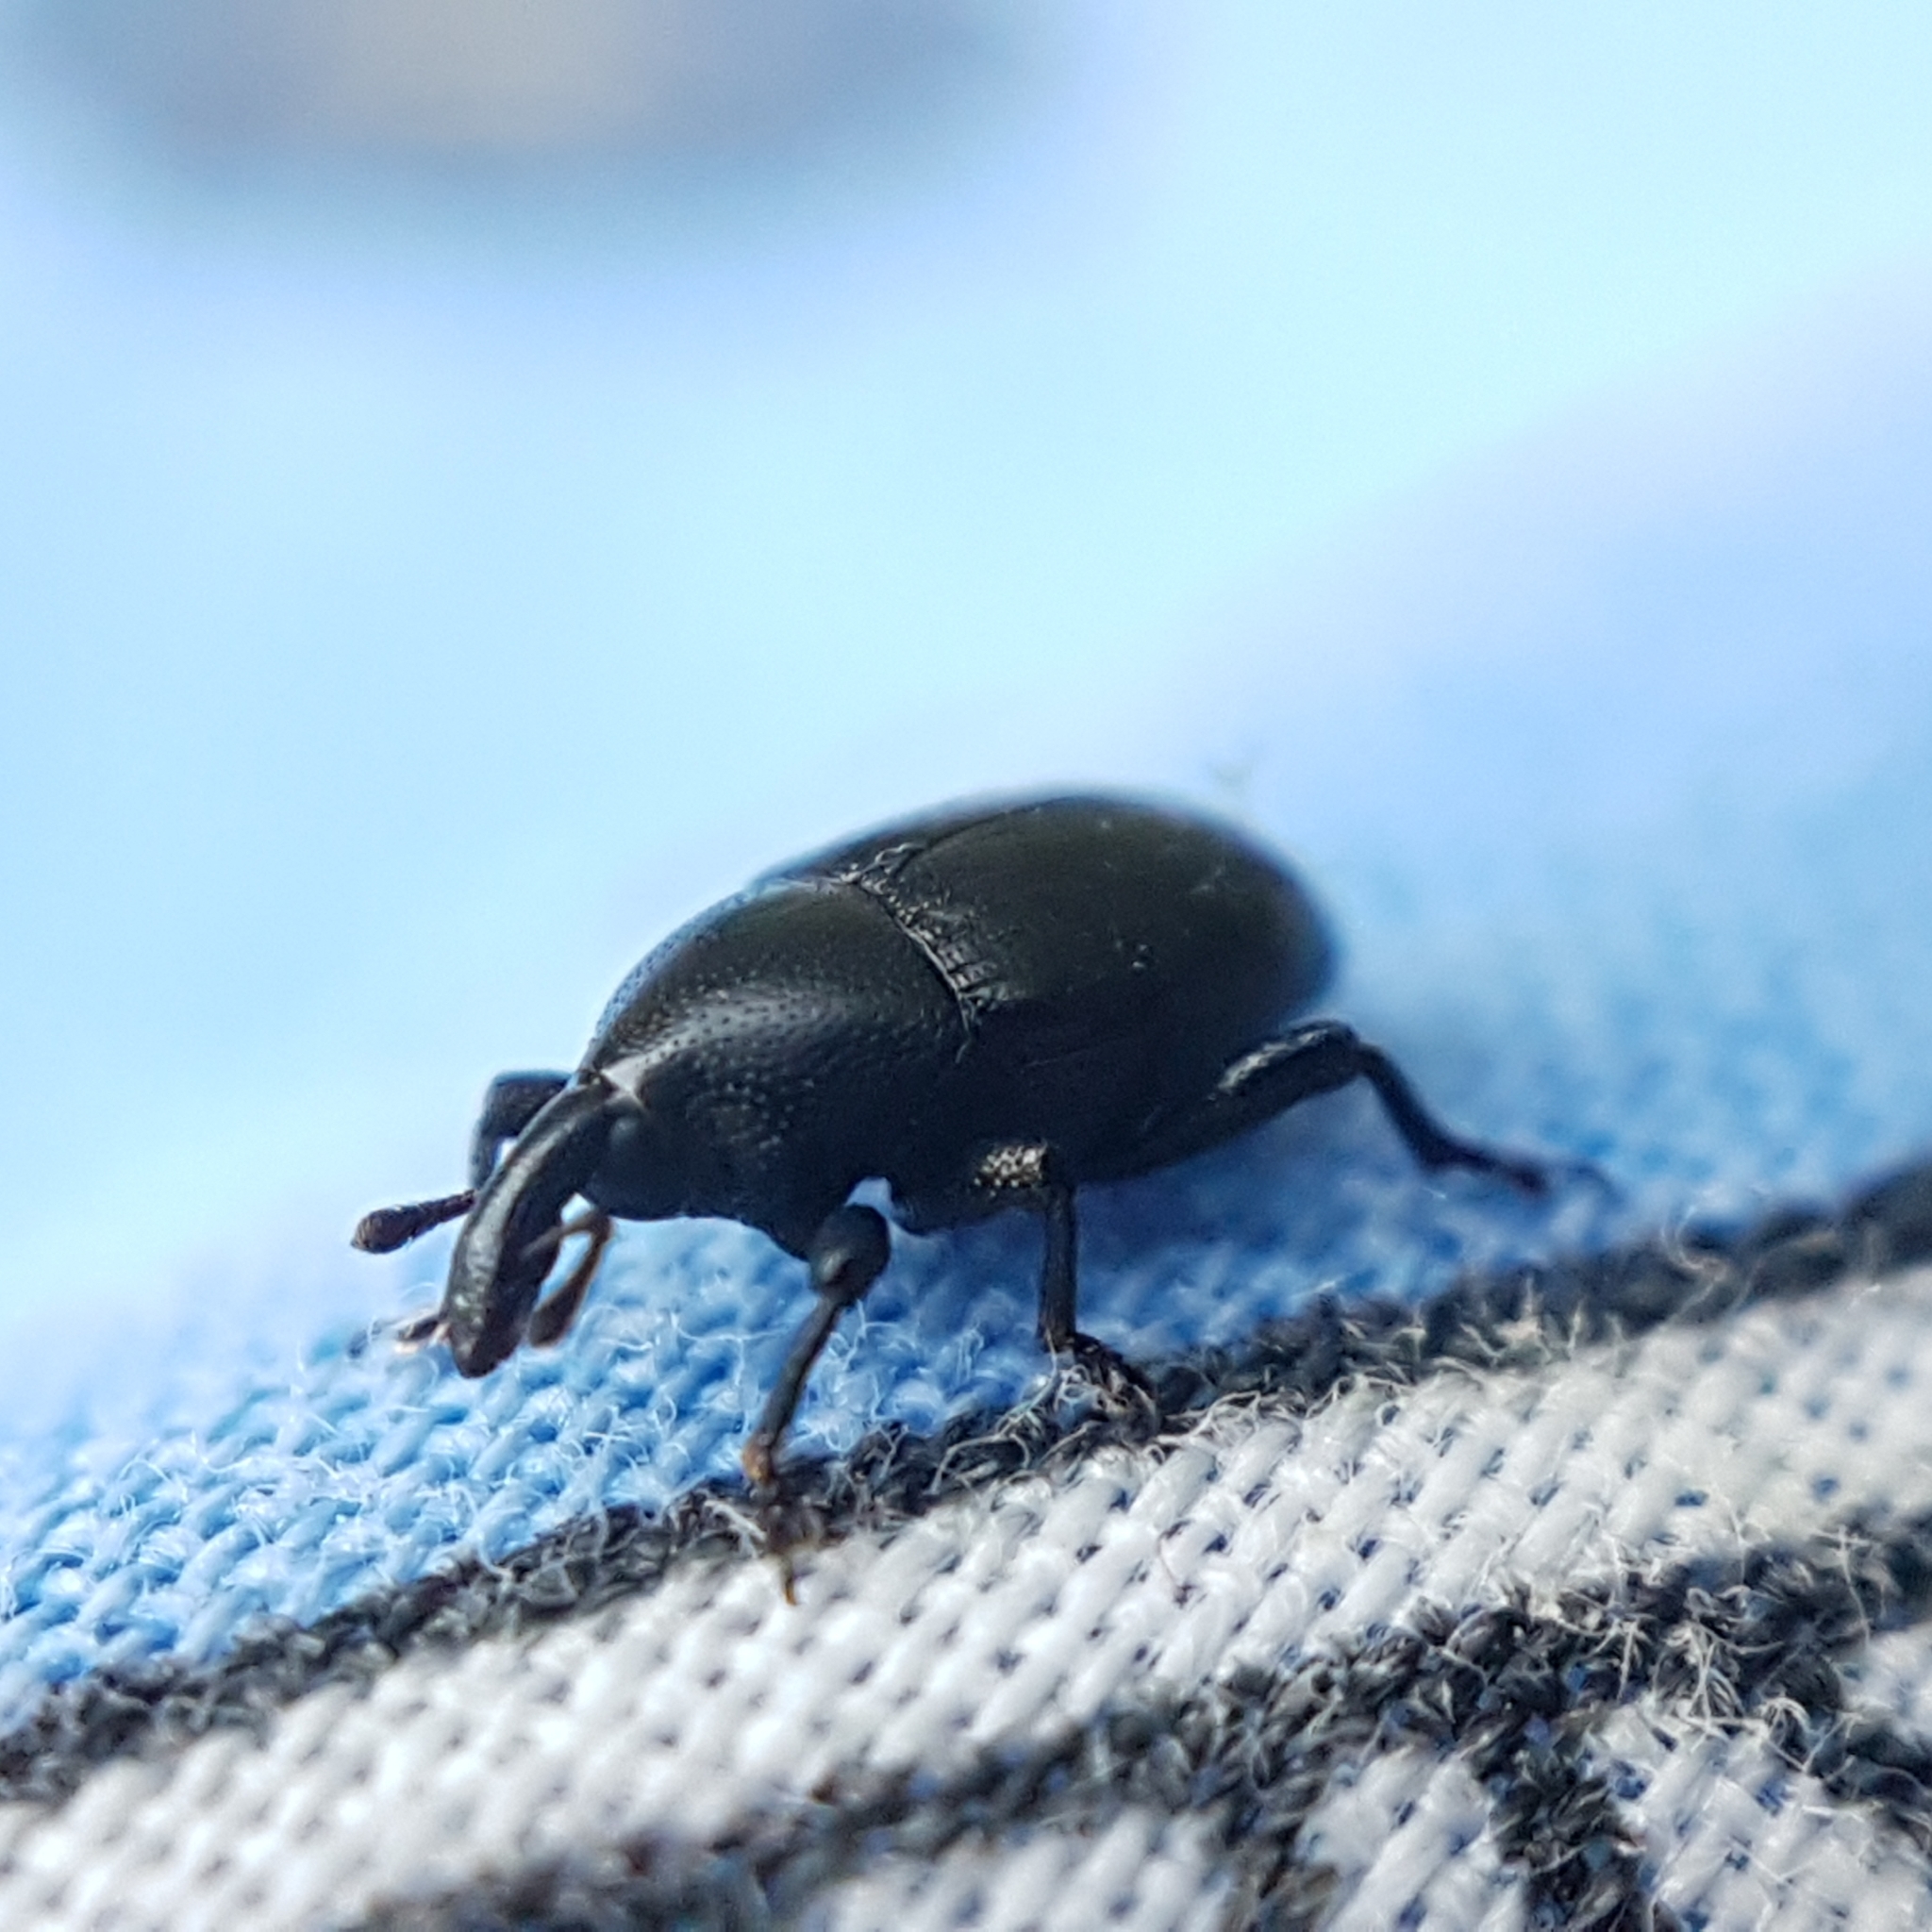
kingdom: Animalia
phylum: Arthropoda
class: Insecta
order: Coleoptera
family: Curculionidae
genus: Malvaevora
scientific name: Malvaevora timida
